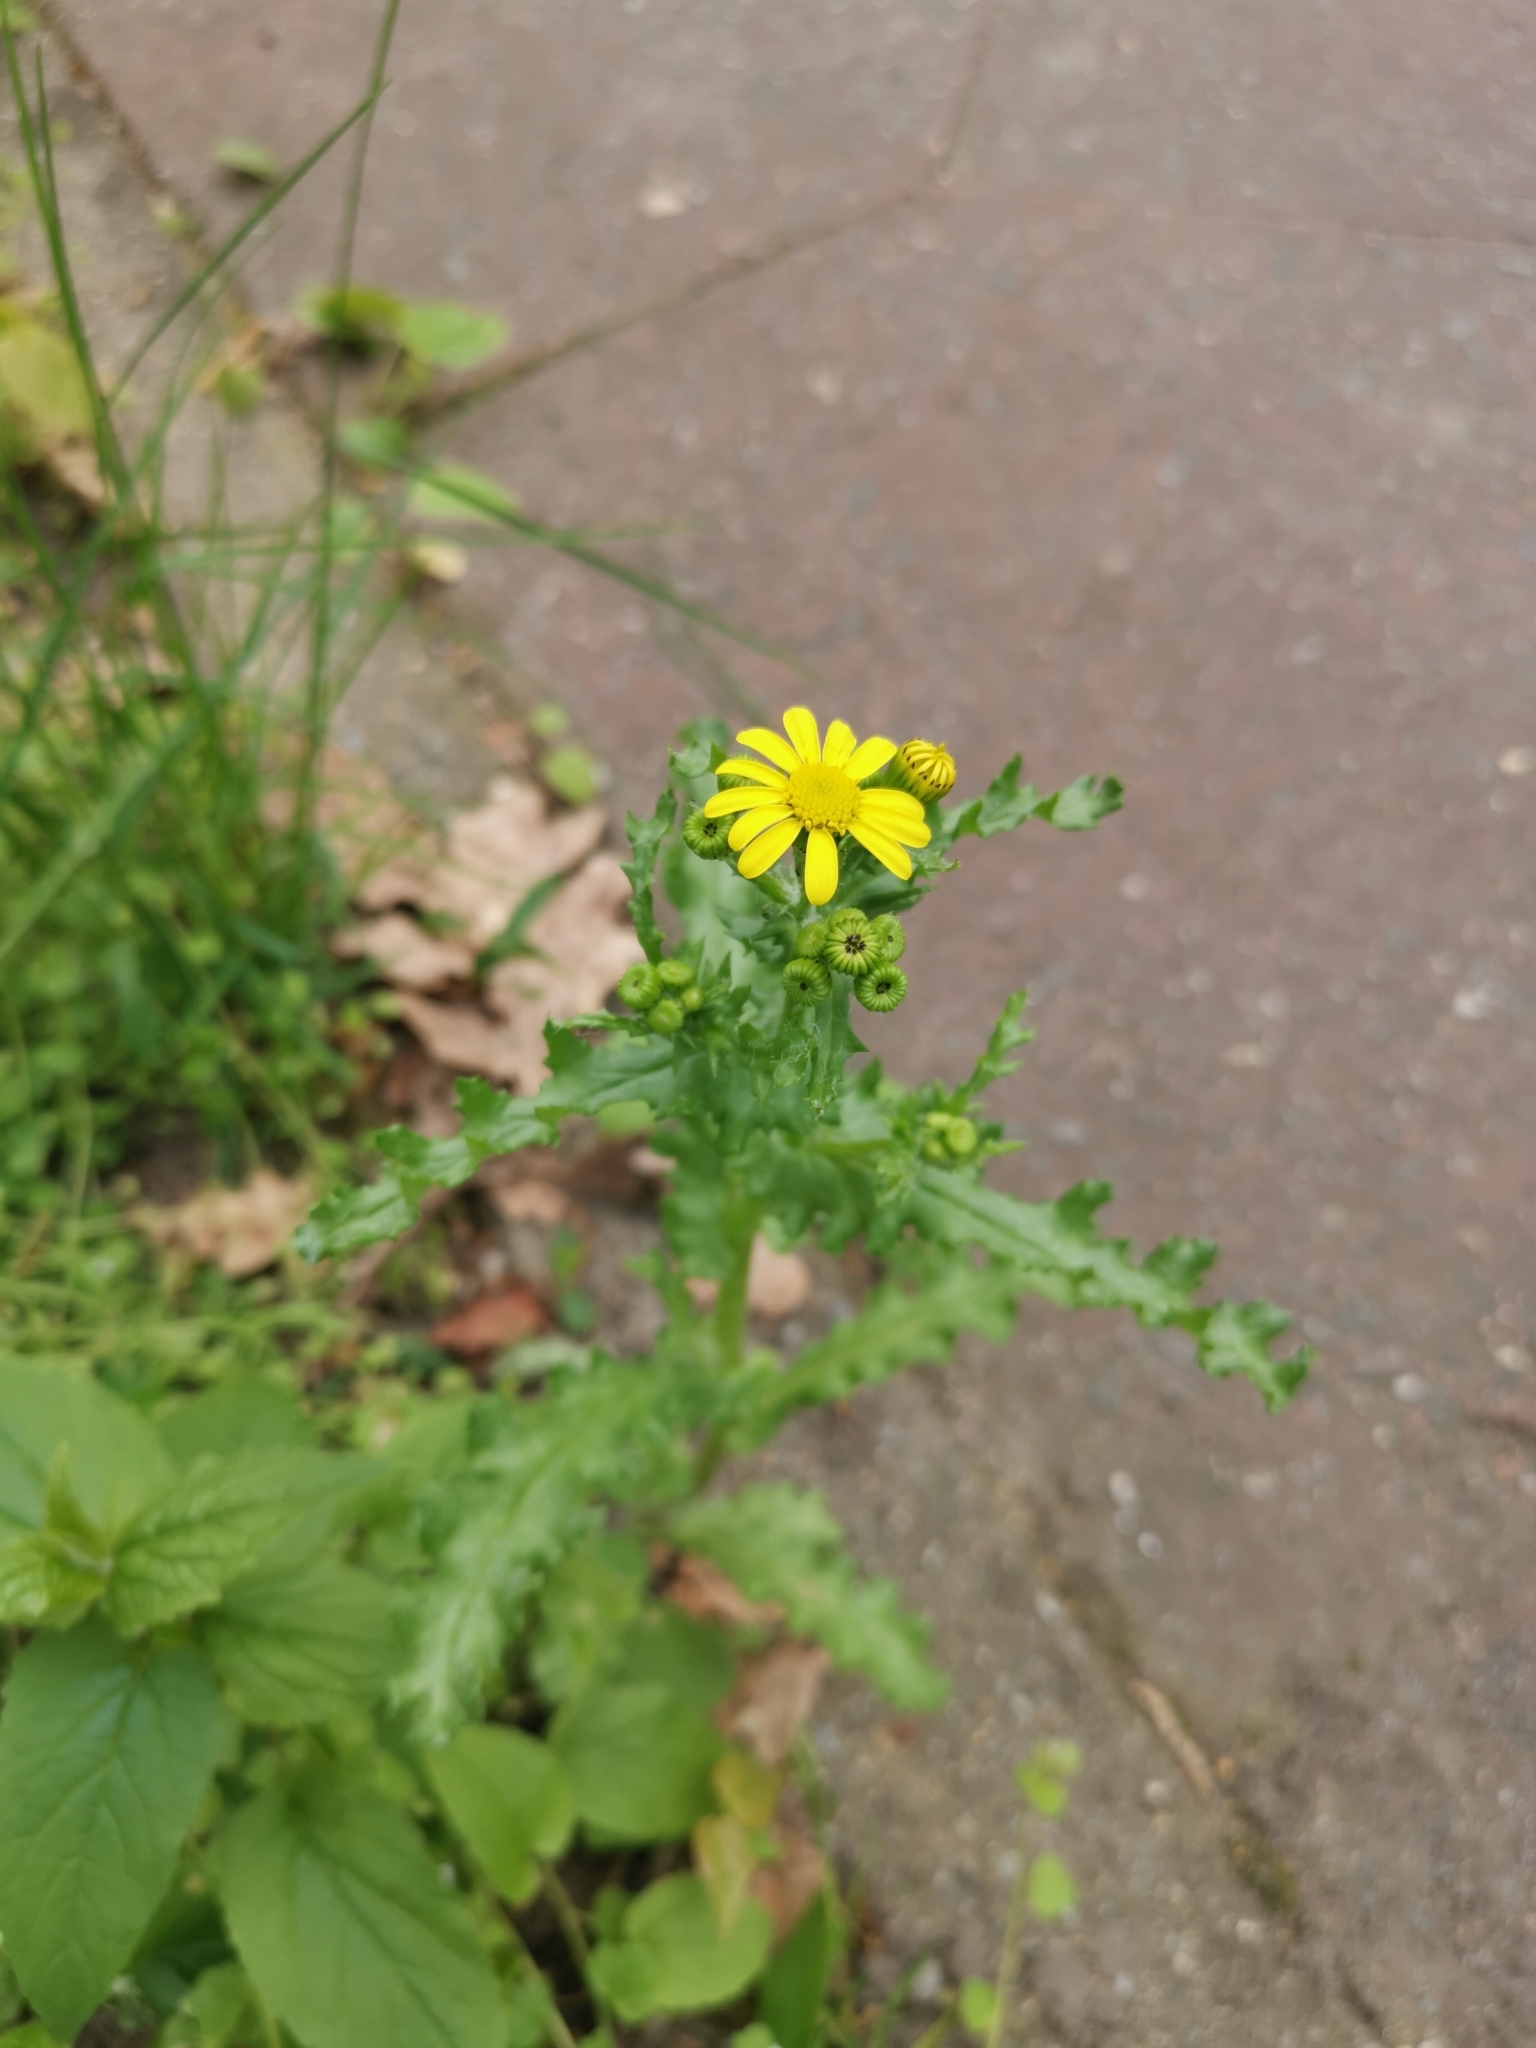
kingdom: Plantae
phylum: Tracheophyta
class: Magnoliopsida
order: Asterales
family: Asteraceae
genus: Senecio
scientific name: Senecio vernalis
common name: Eastern groundsel
